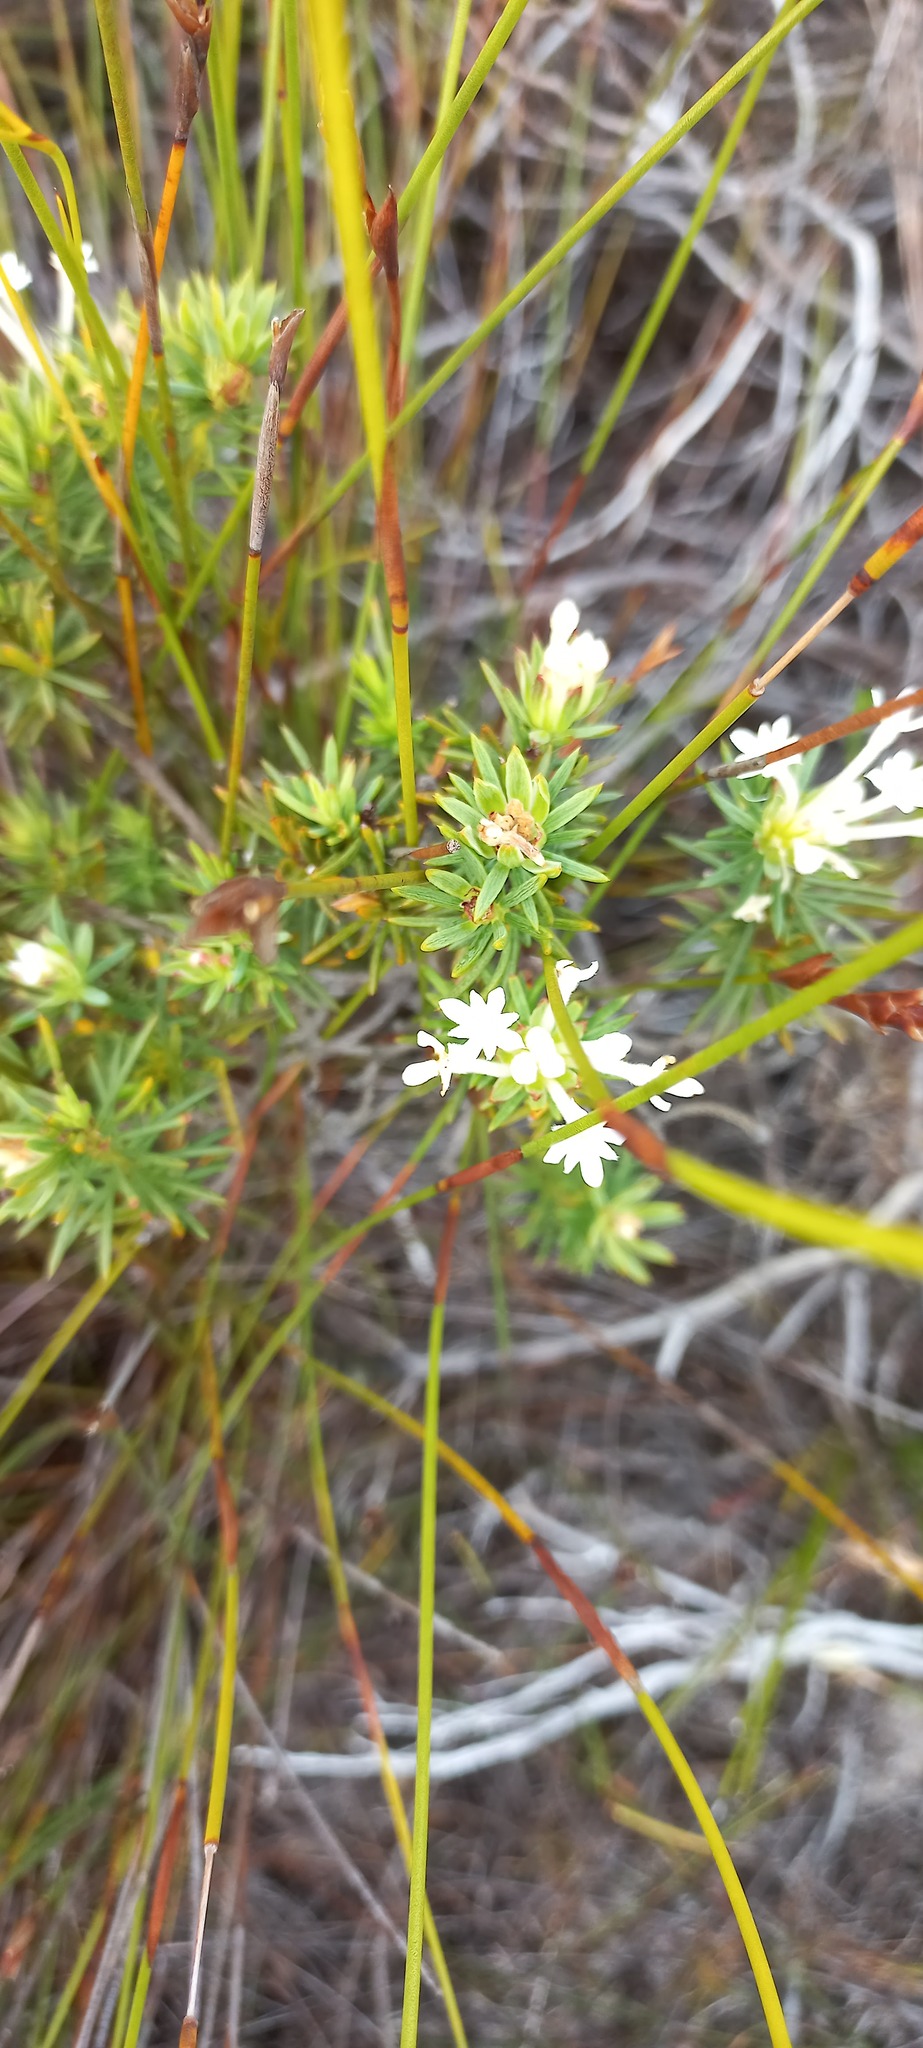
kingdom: Plantae
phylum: Tracheophyta
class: Magnoliopsida
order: Malvales
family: Thymelaeaceae
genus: Gnidia
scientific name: Gnidia pinifolia
